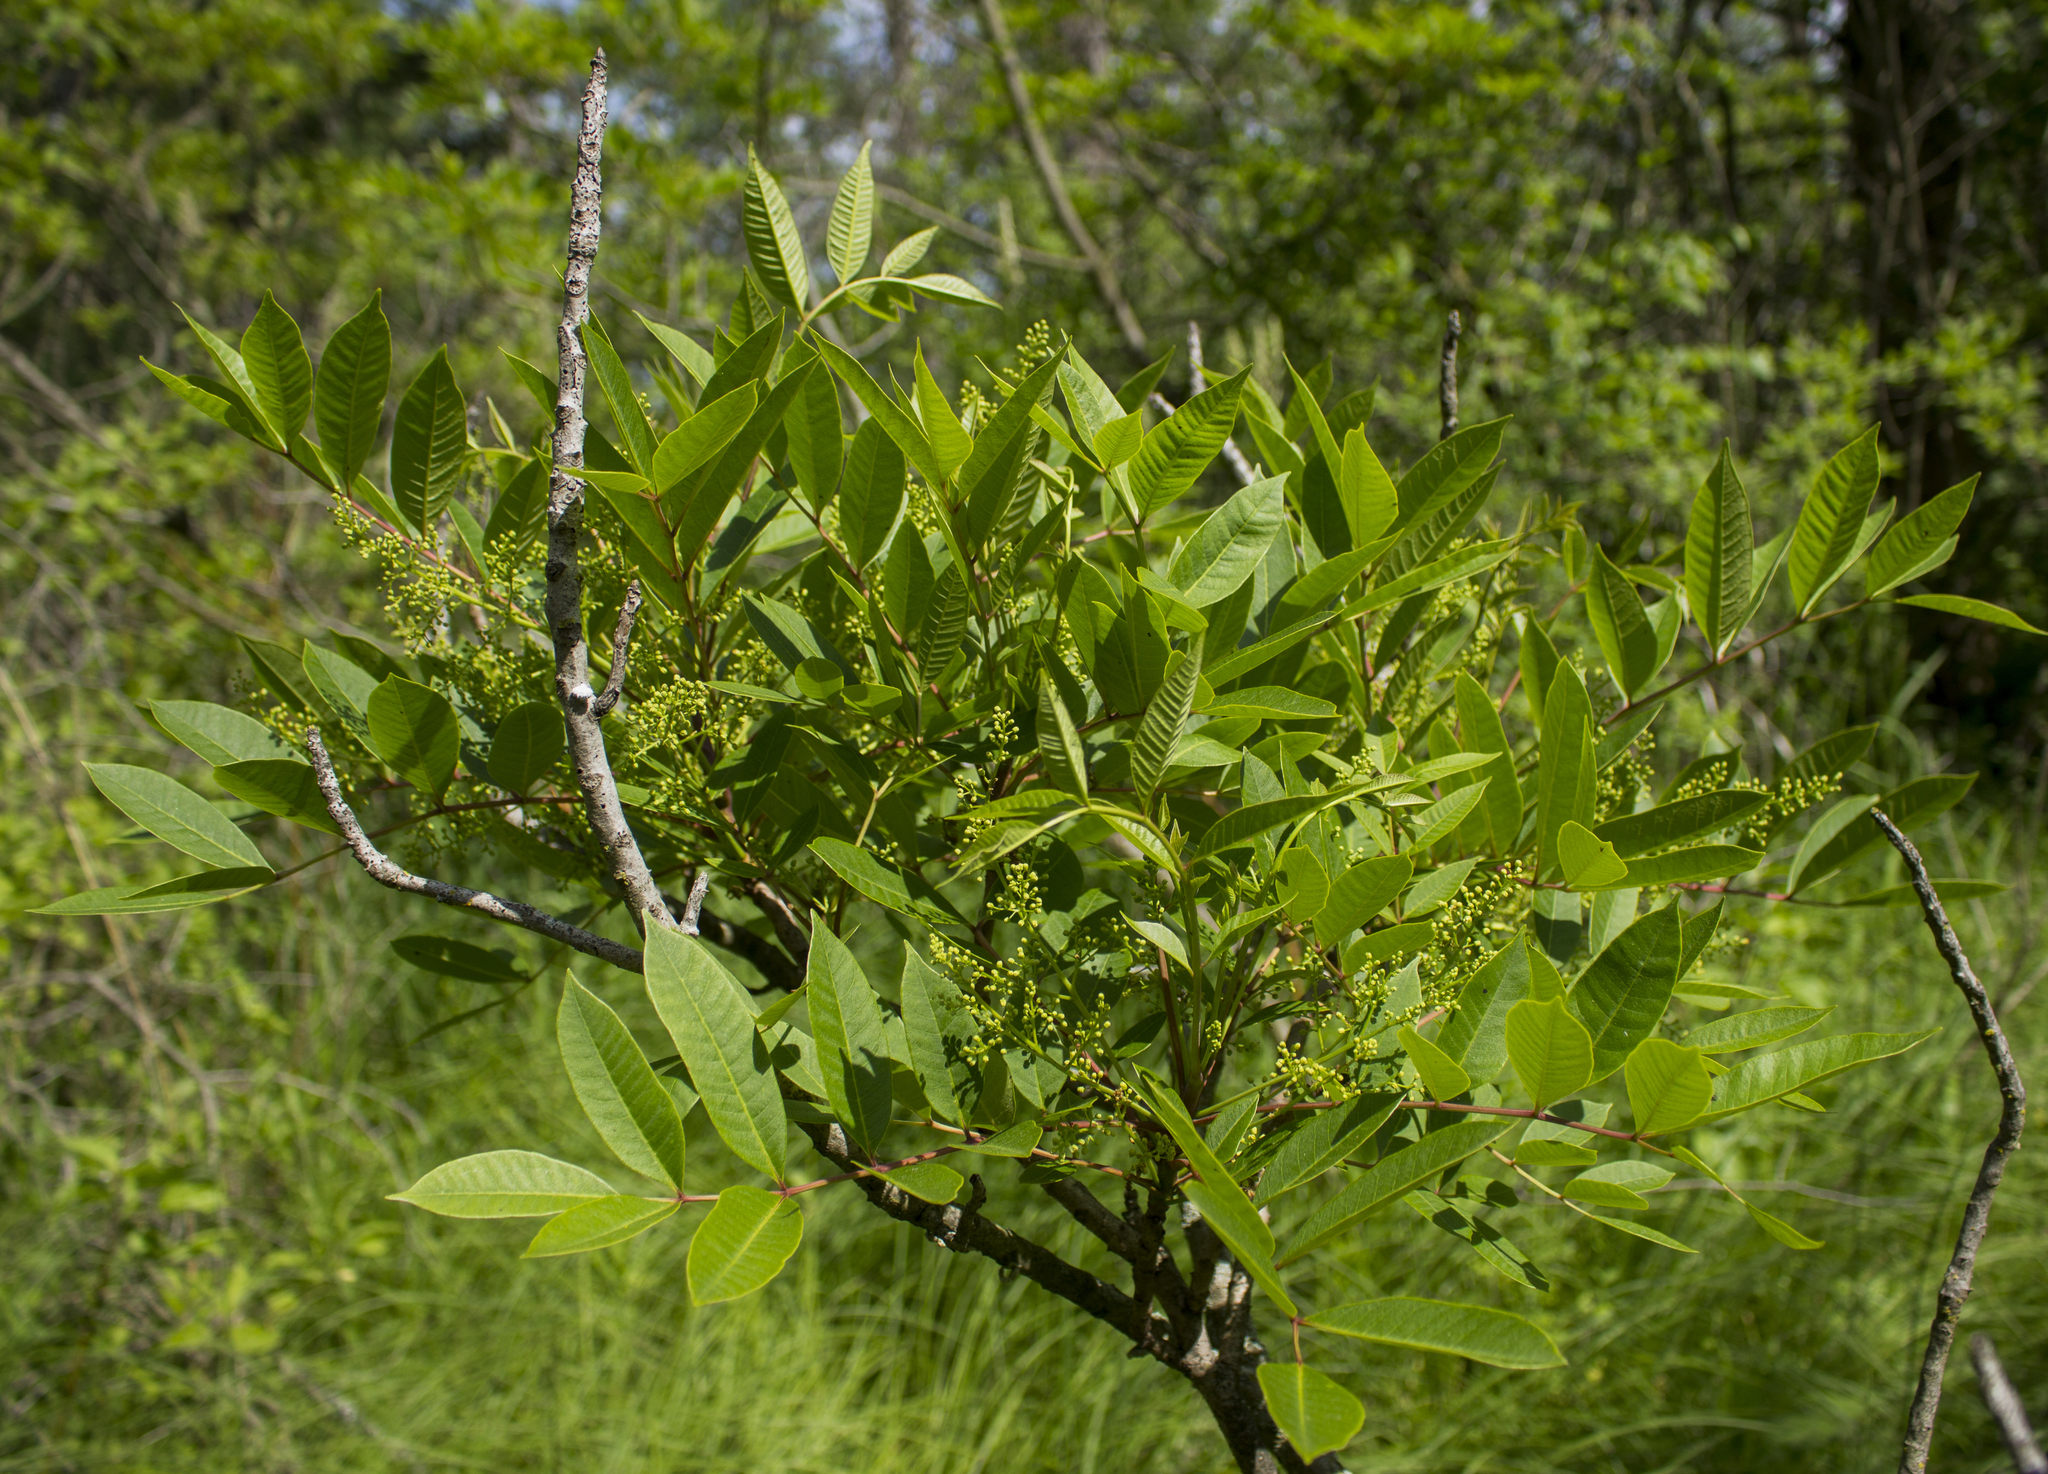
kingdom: Plantae
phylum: Tracheophyta
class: Magnoliopsida
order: Sapindales
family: Anacardiaceae
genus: Toxicodendron
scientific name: Toxicodendron vernix
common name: Poison sumac
